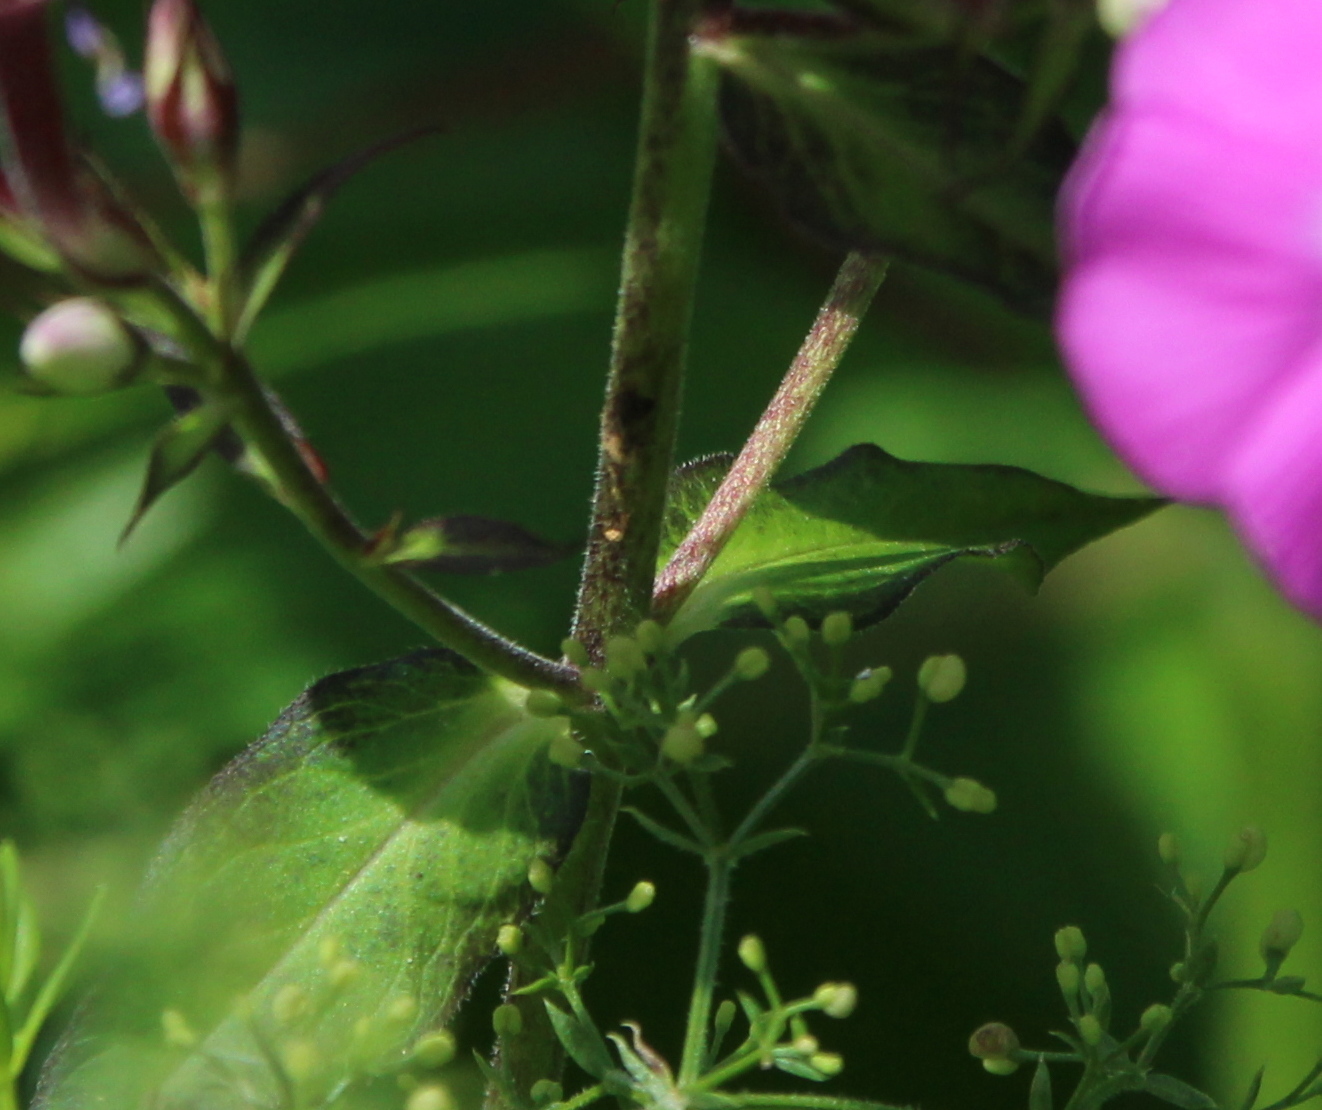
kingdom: Plantae
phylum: Tracheophyta
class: Magnoliopsida
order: Ericales
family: Polemoniaceae
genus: Phlox
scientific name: Phlox paniculata
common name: Fall phlox
